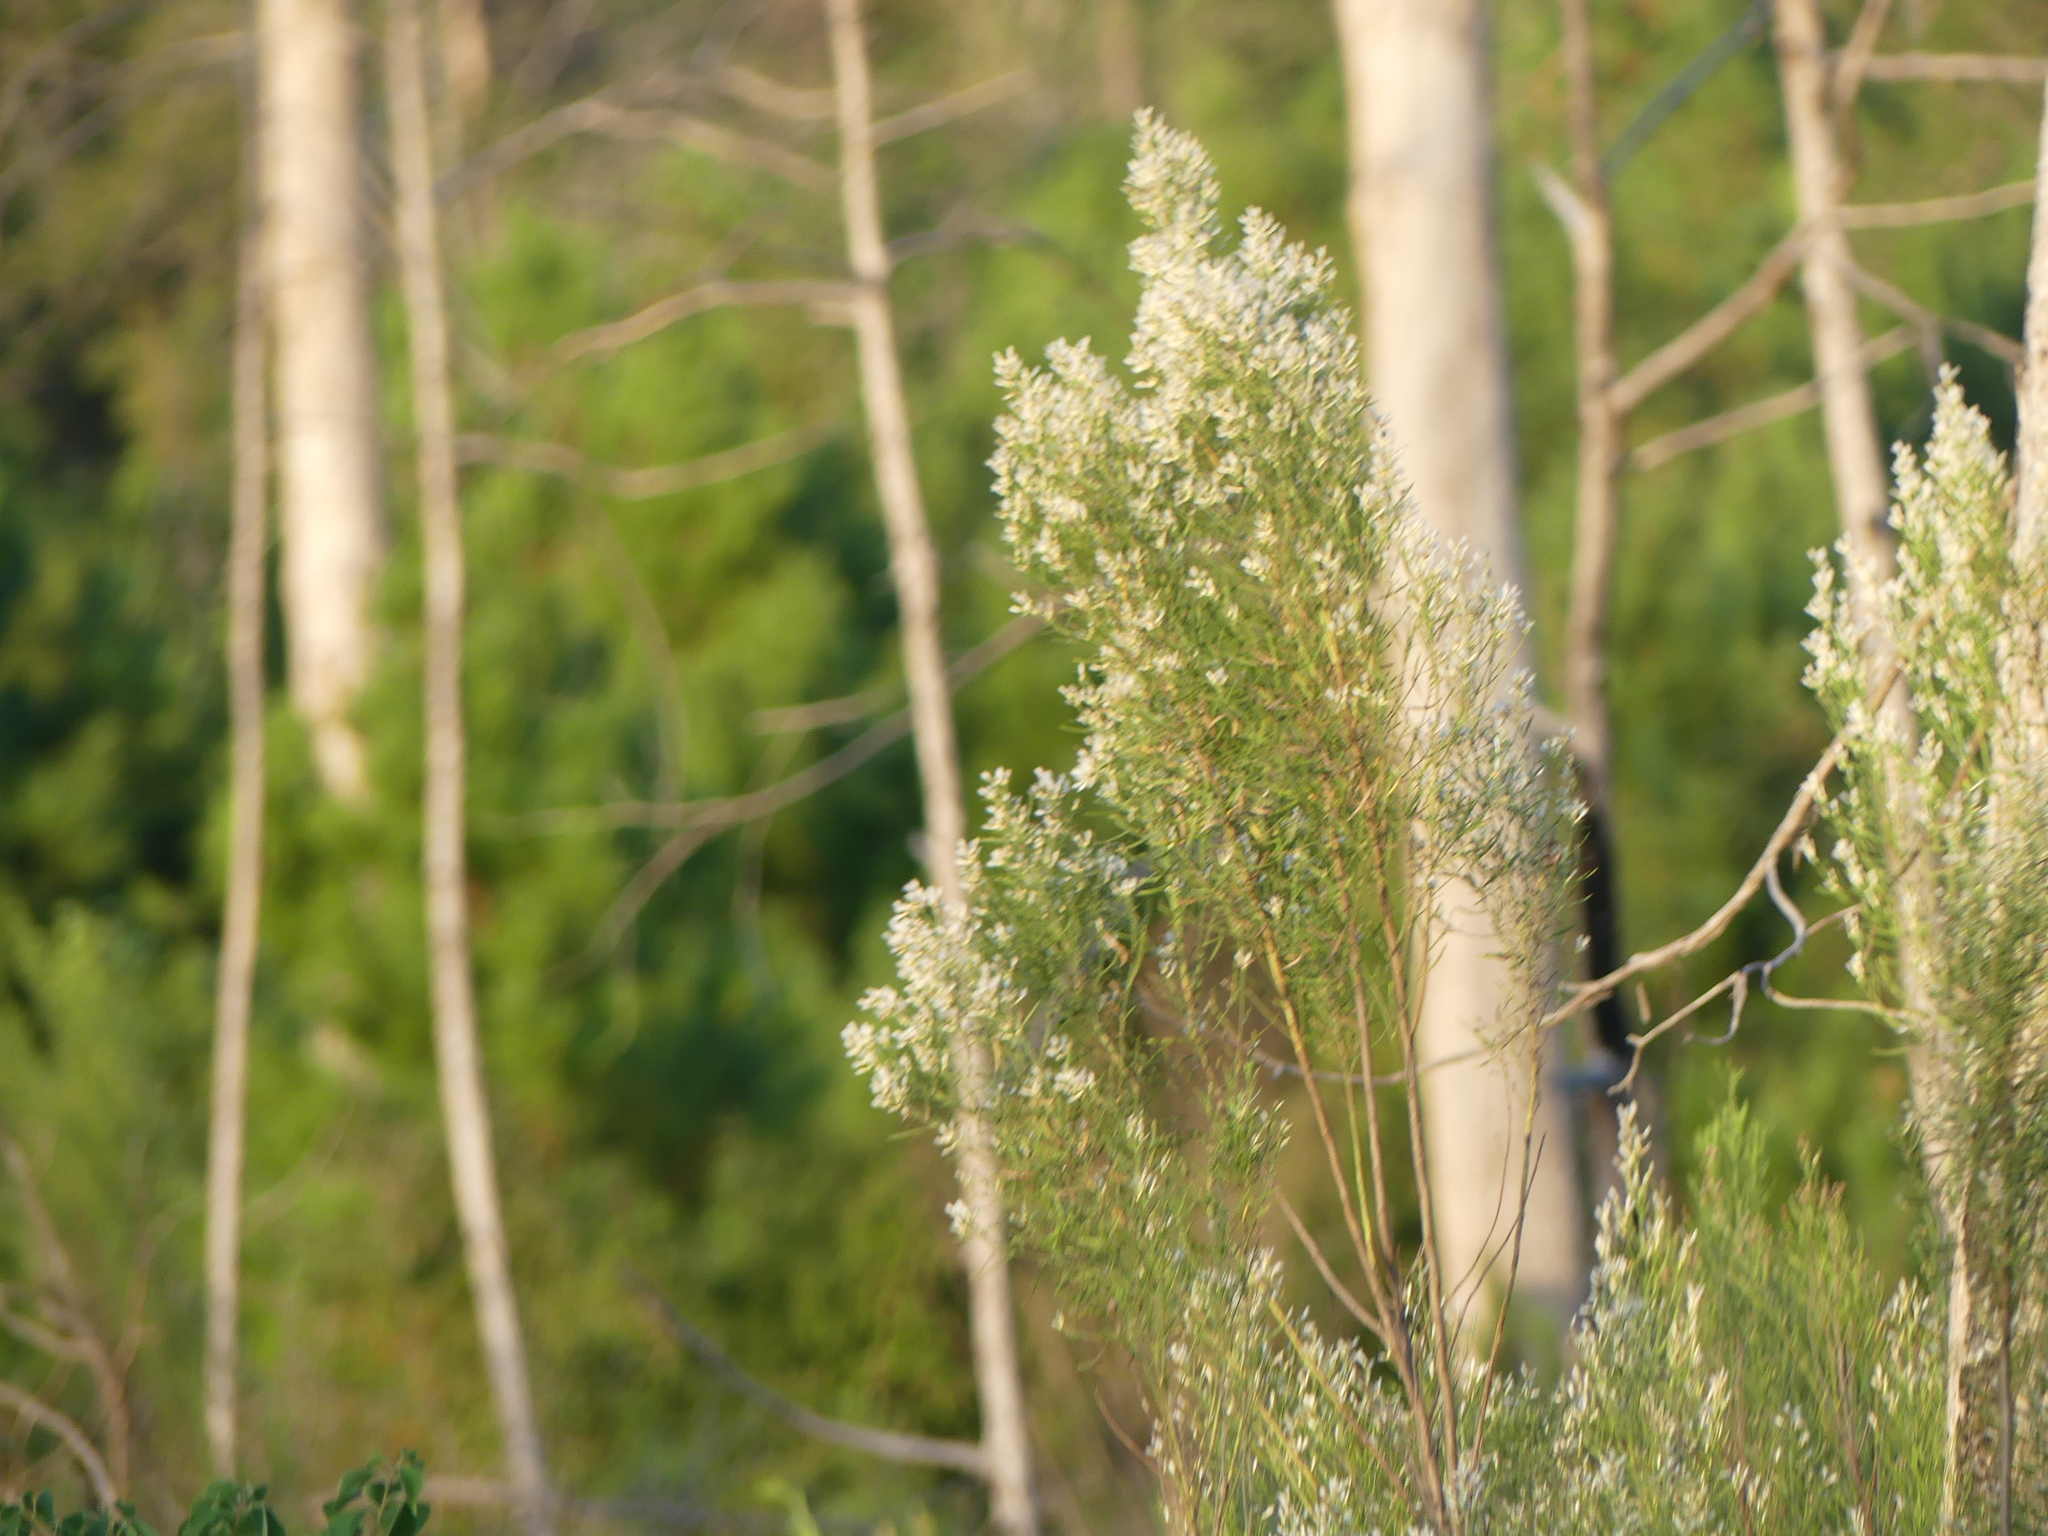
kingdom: Plantae
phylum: Tracheophyta
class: Magnoliopsida
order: Asterales
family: Asteraceae
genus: Baccharis
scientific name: Baccharis neglecta
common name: Roosevelt-weed
